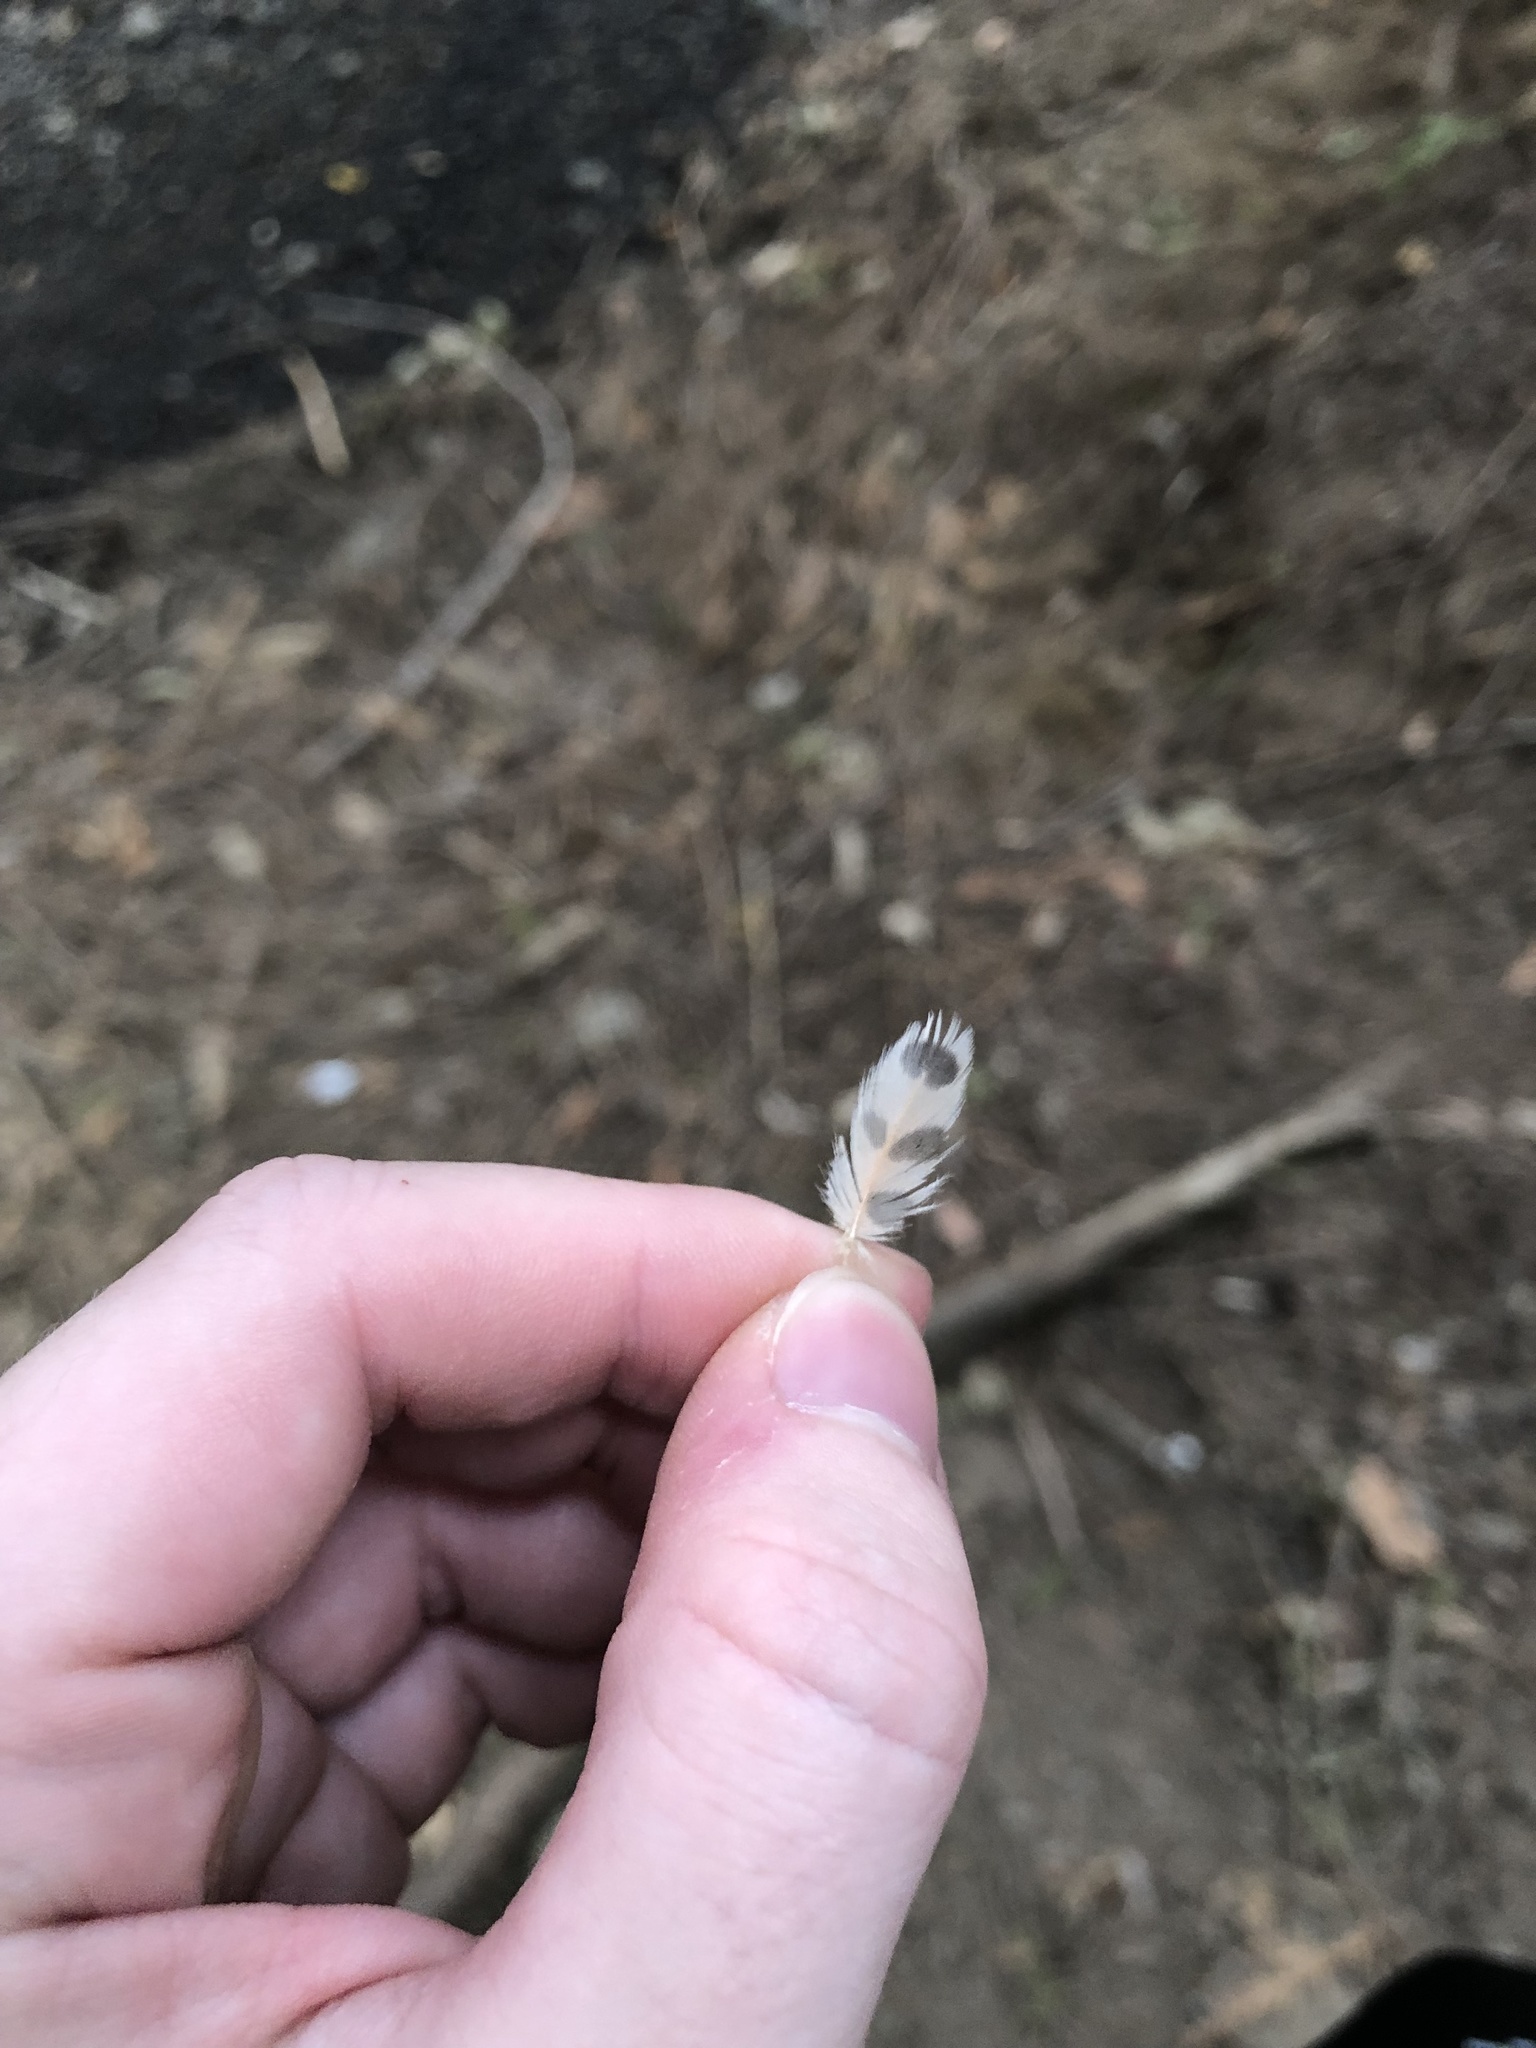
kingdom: Animalia
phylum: Chordata
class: Aves
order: Piciformes
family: Picidae
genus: Colaptes
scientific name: Colaptes auratus
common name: Northern flicker
